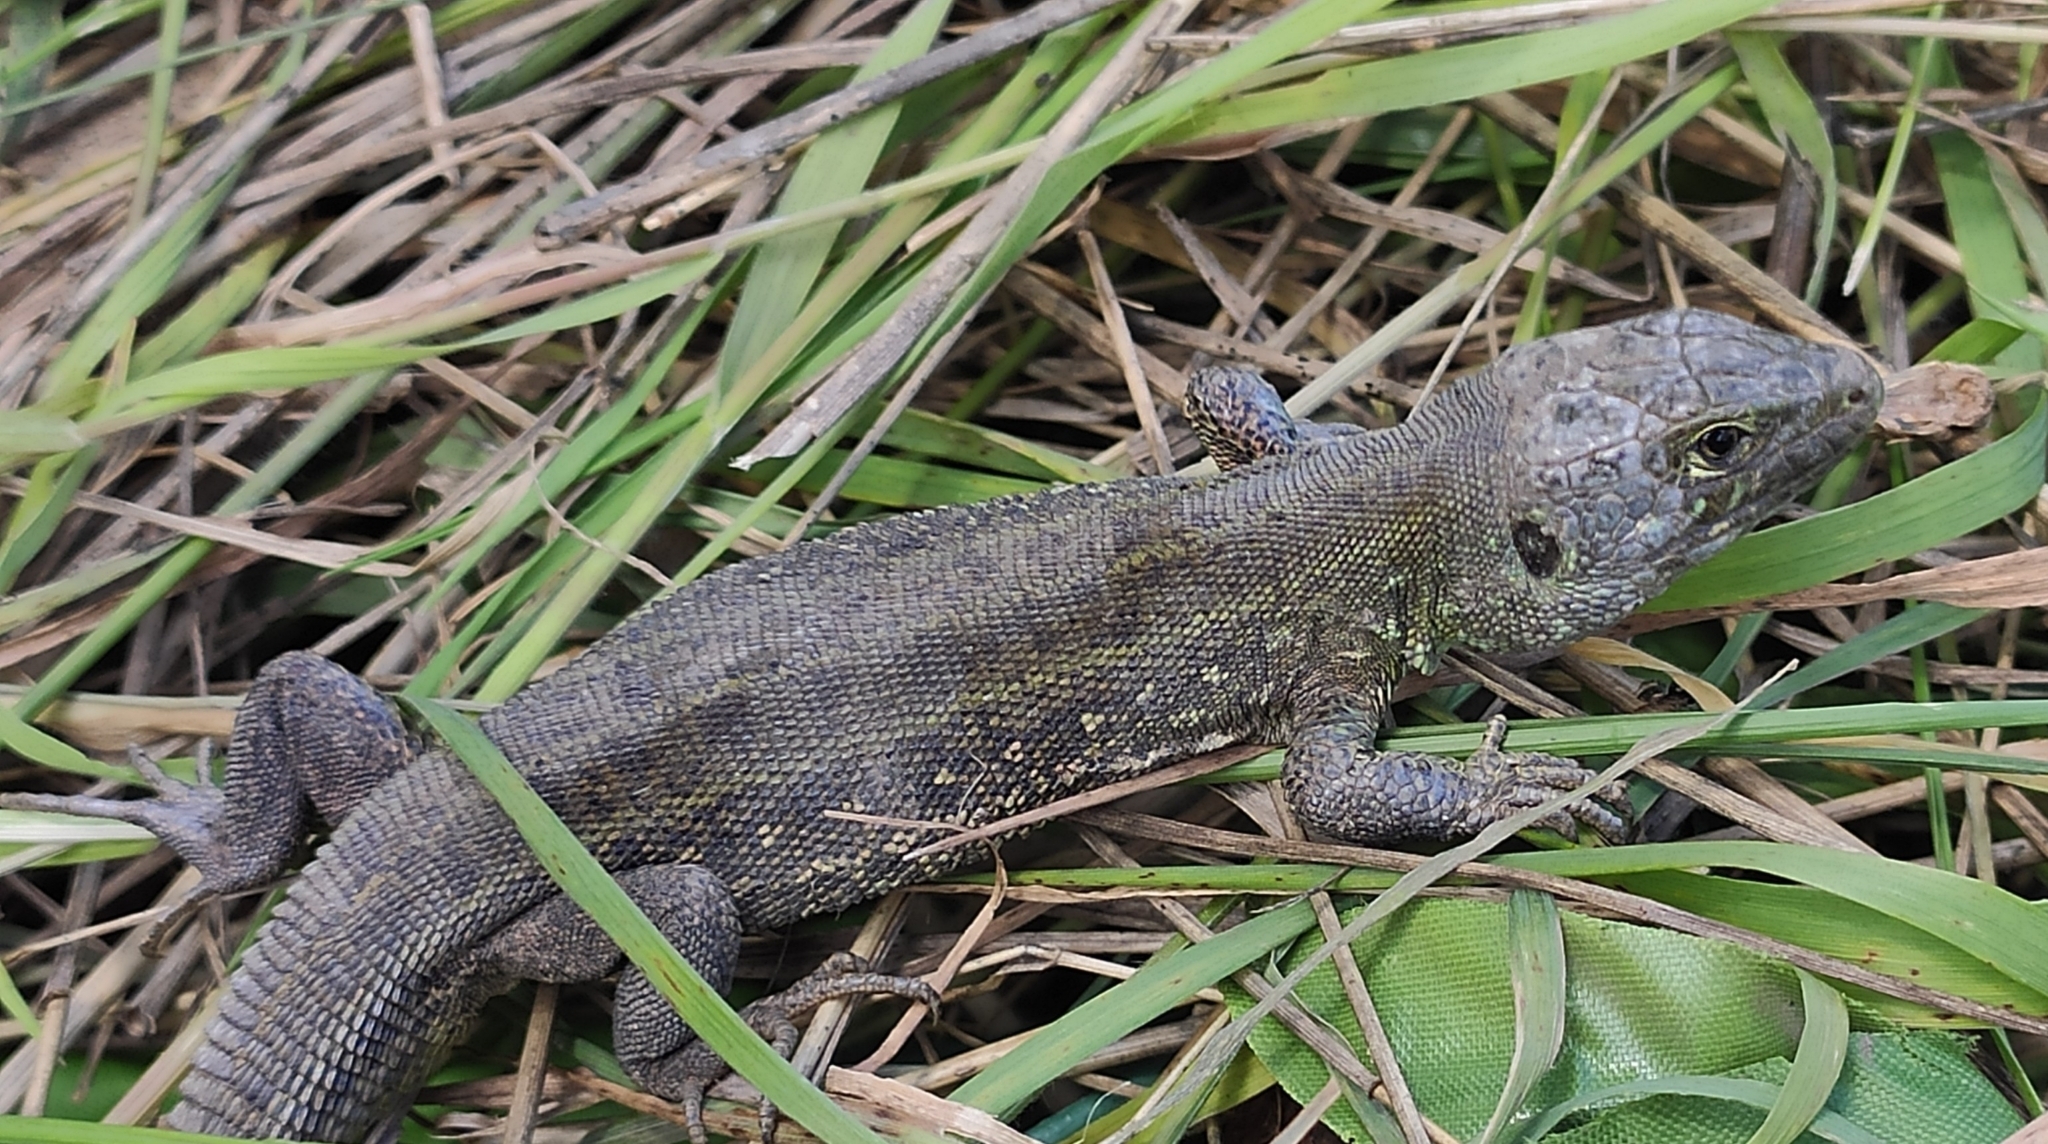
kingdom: Animalia
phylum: Chordata
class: Squamata
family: Lacertidae
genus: Lacerta
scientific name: Lacerta agilis
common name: Sand lizard
